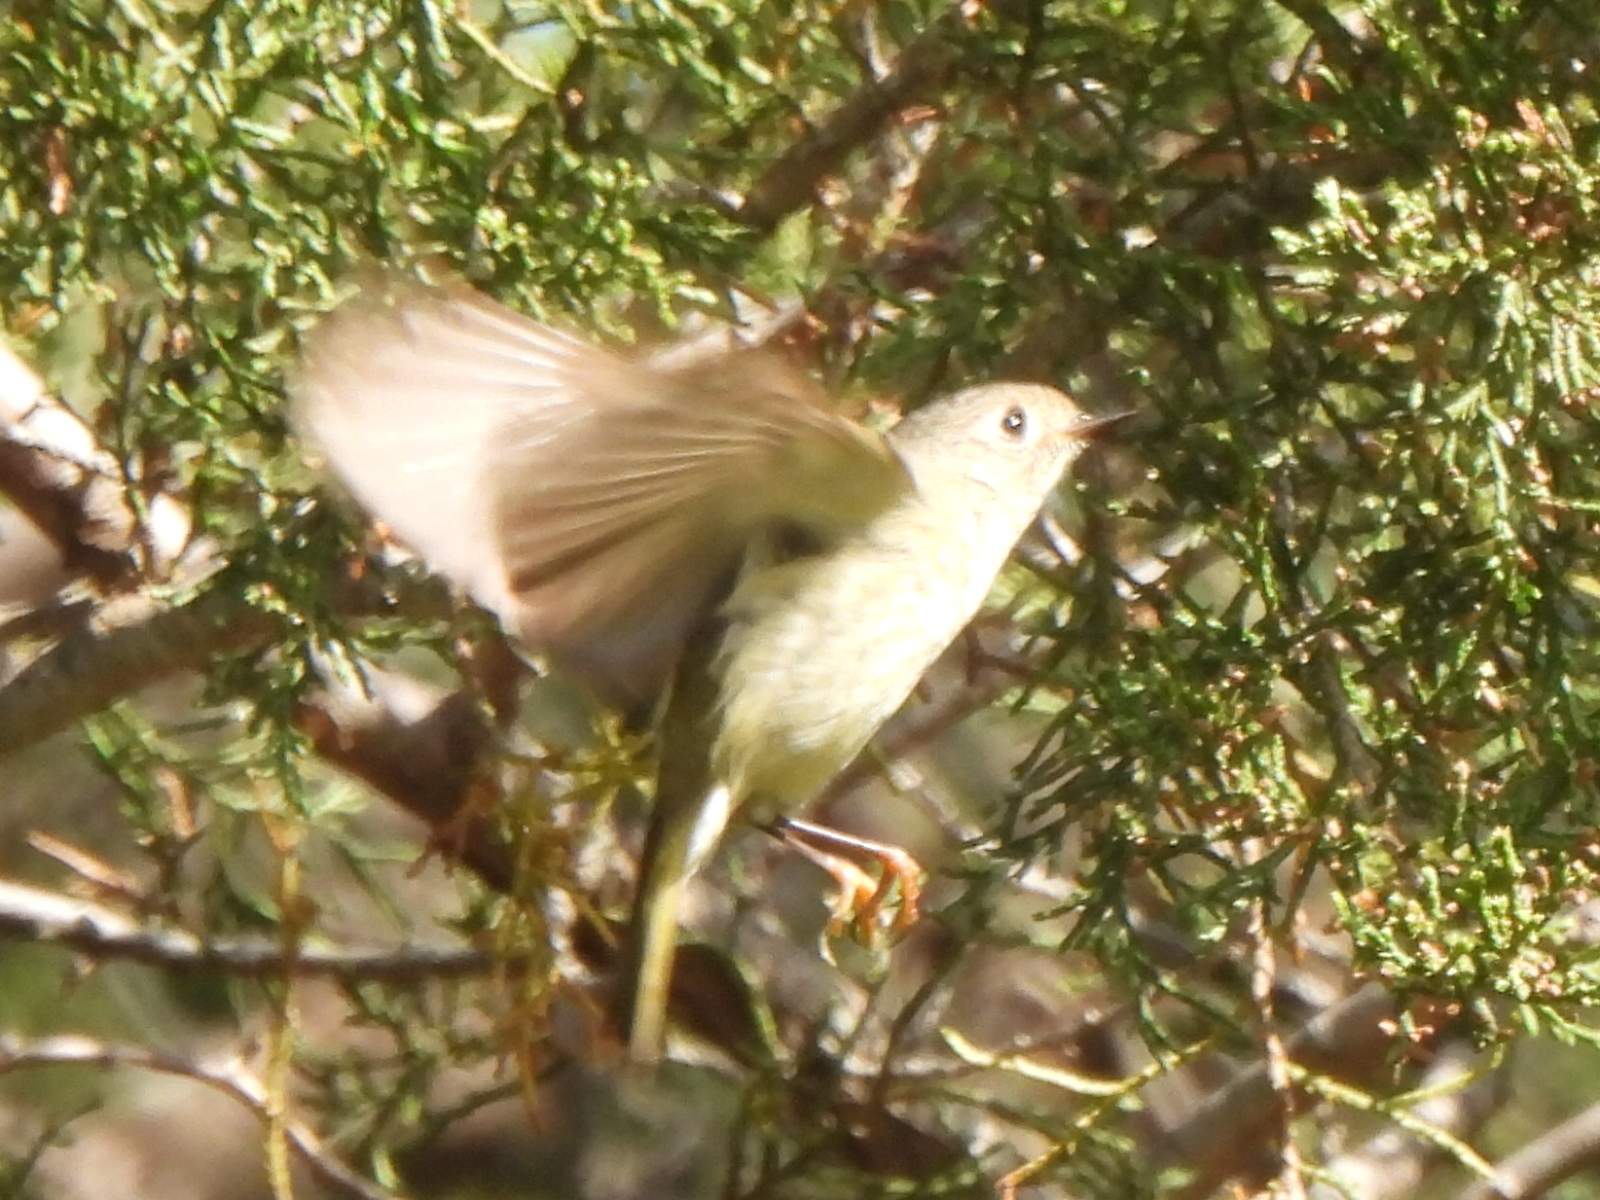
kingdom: Animalia
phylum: Chordata
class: Aves
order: Passeriformes
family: Regulidae
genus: Regulus
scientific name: Regulus calendula
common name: Ruby-crowned kinglet
